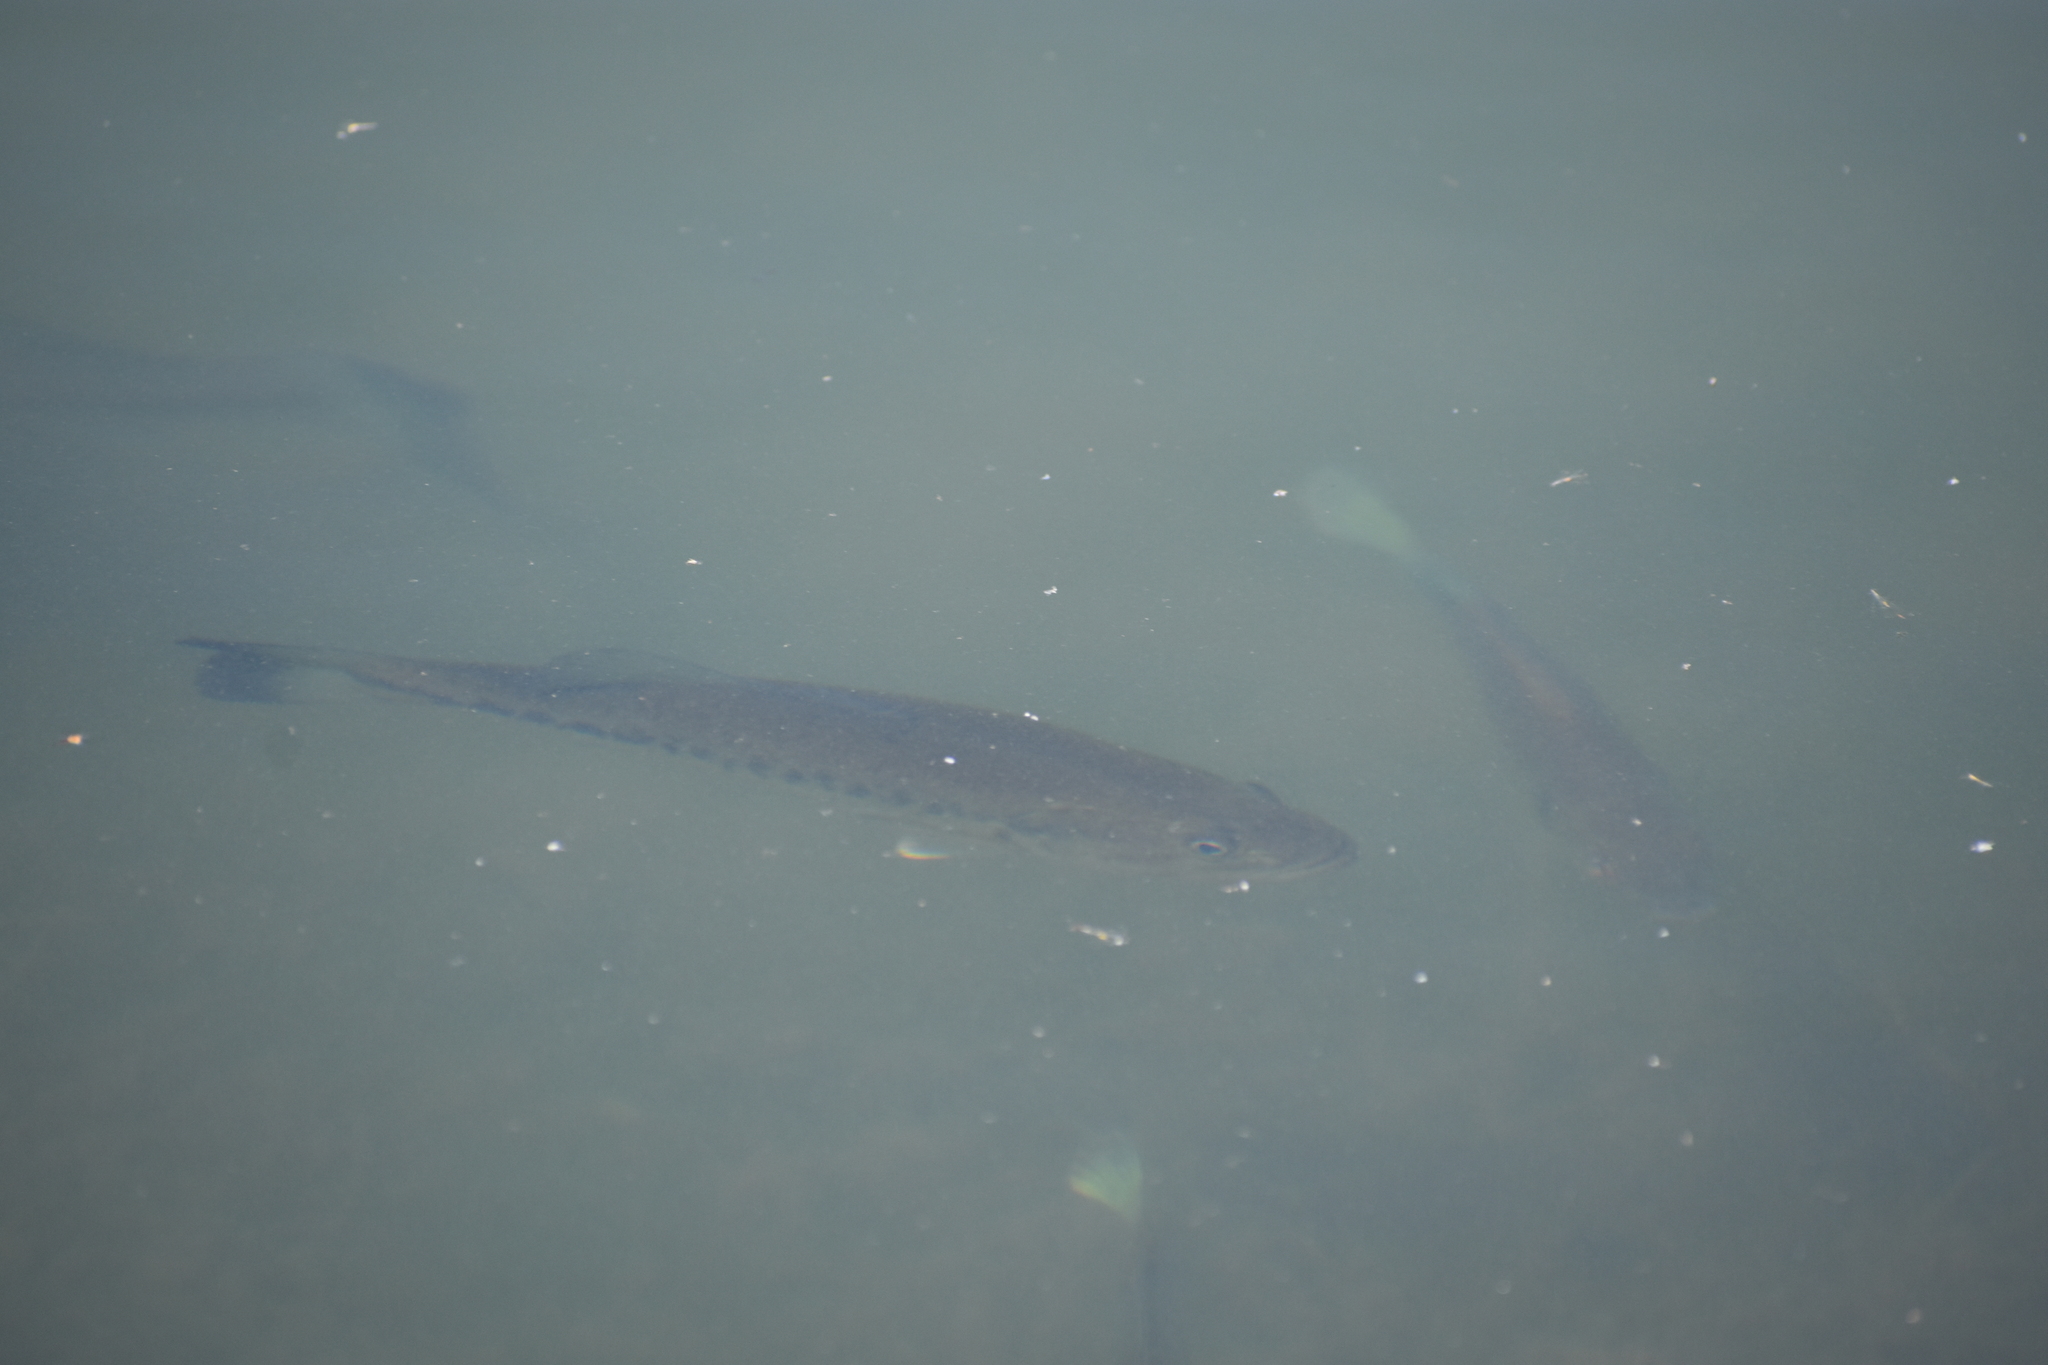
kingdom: Animalia
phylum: Chordata
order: Perciformes
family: Centrarchidae
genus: Micropterus
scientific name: Micropterus
